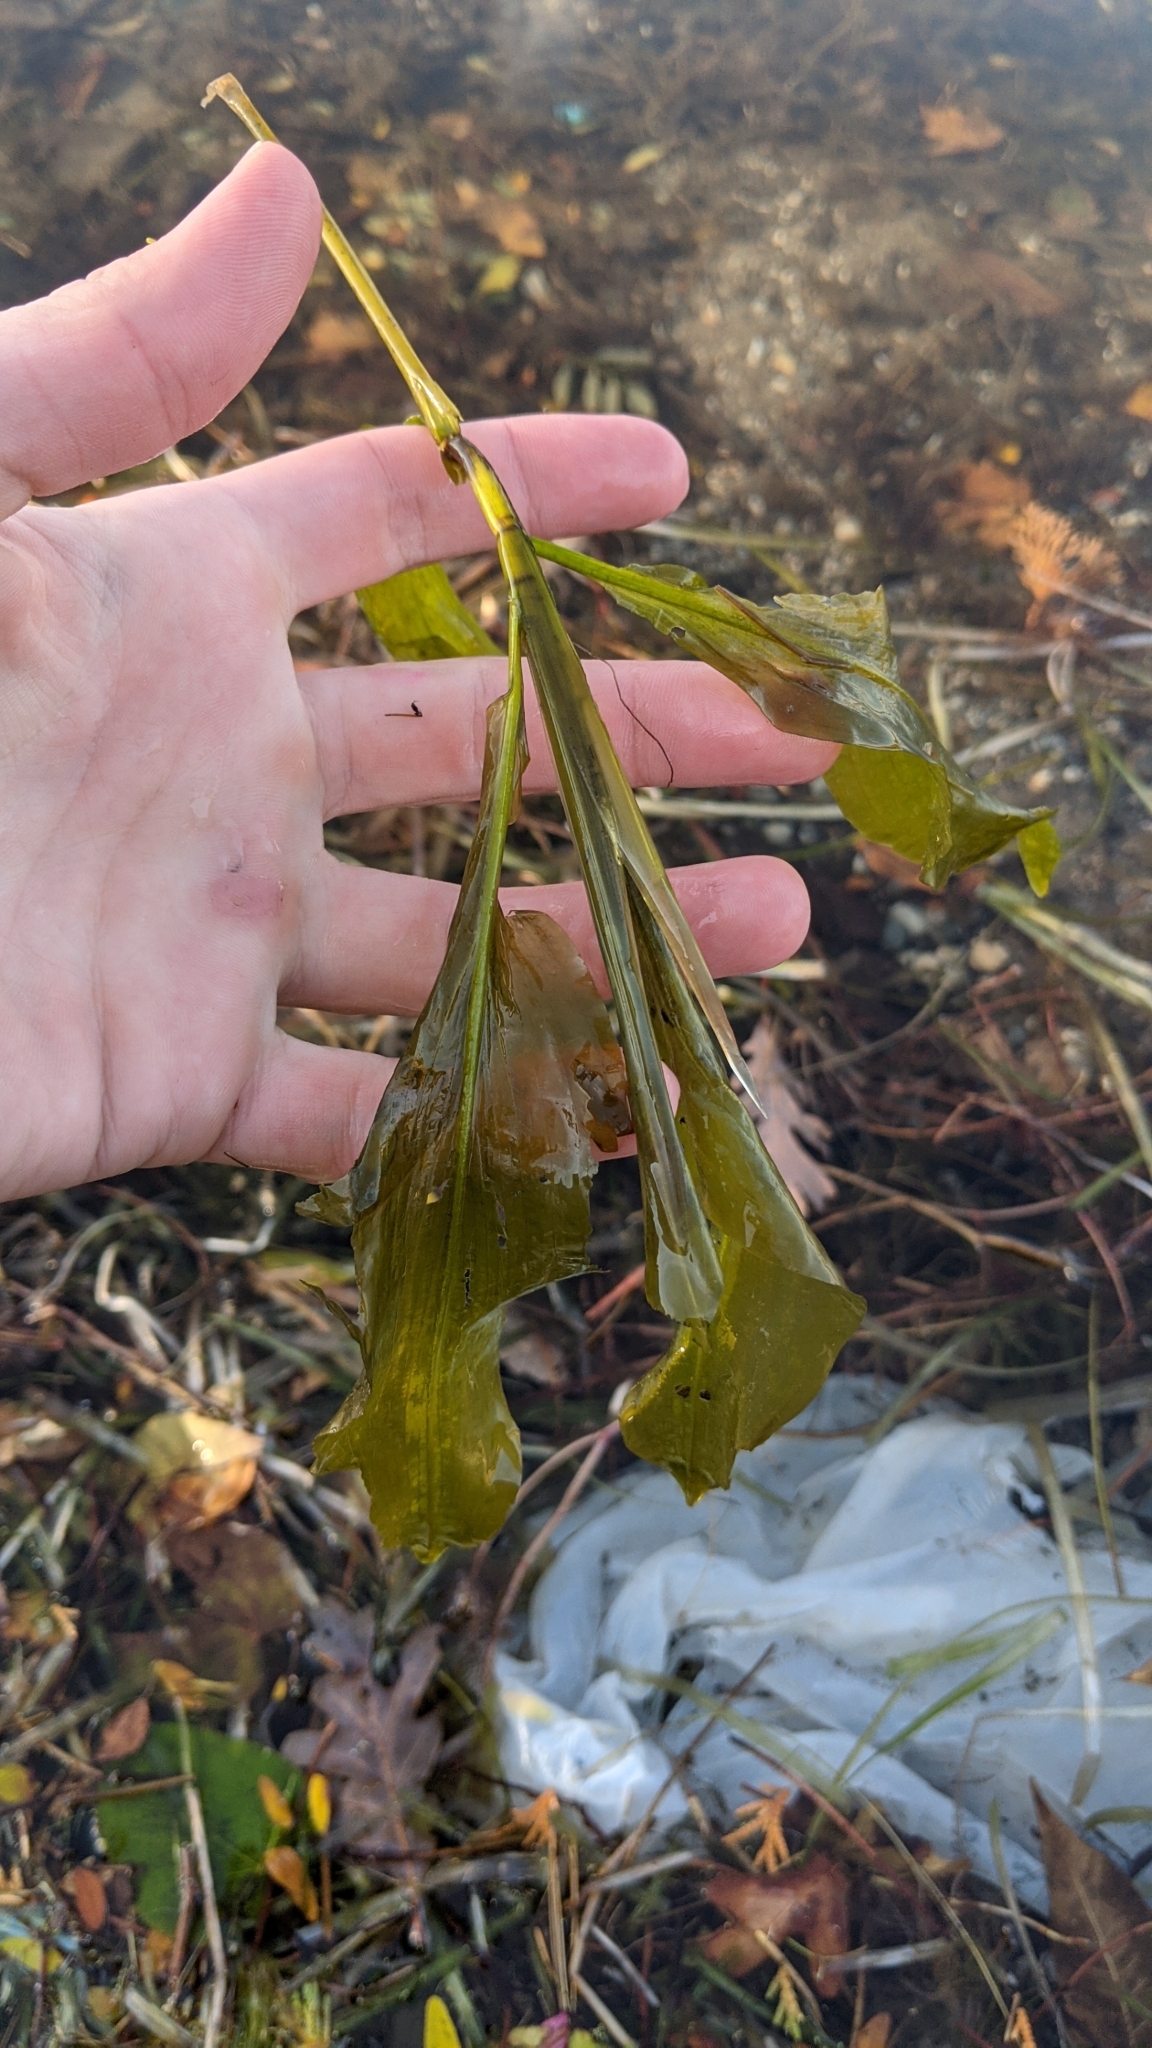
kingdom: Plantae
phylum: Tracheophyta
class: Liliopsida
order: Alismatales
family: Potamogetonaceae
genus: Potamogeton
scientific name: Potamogeton amplifolius
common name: Broad-leaved pondweed
